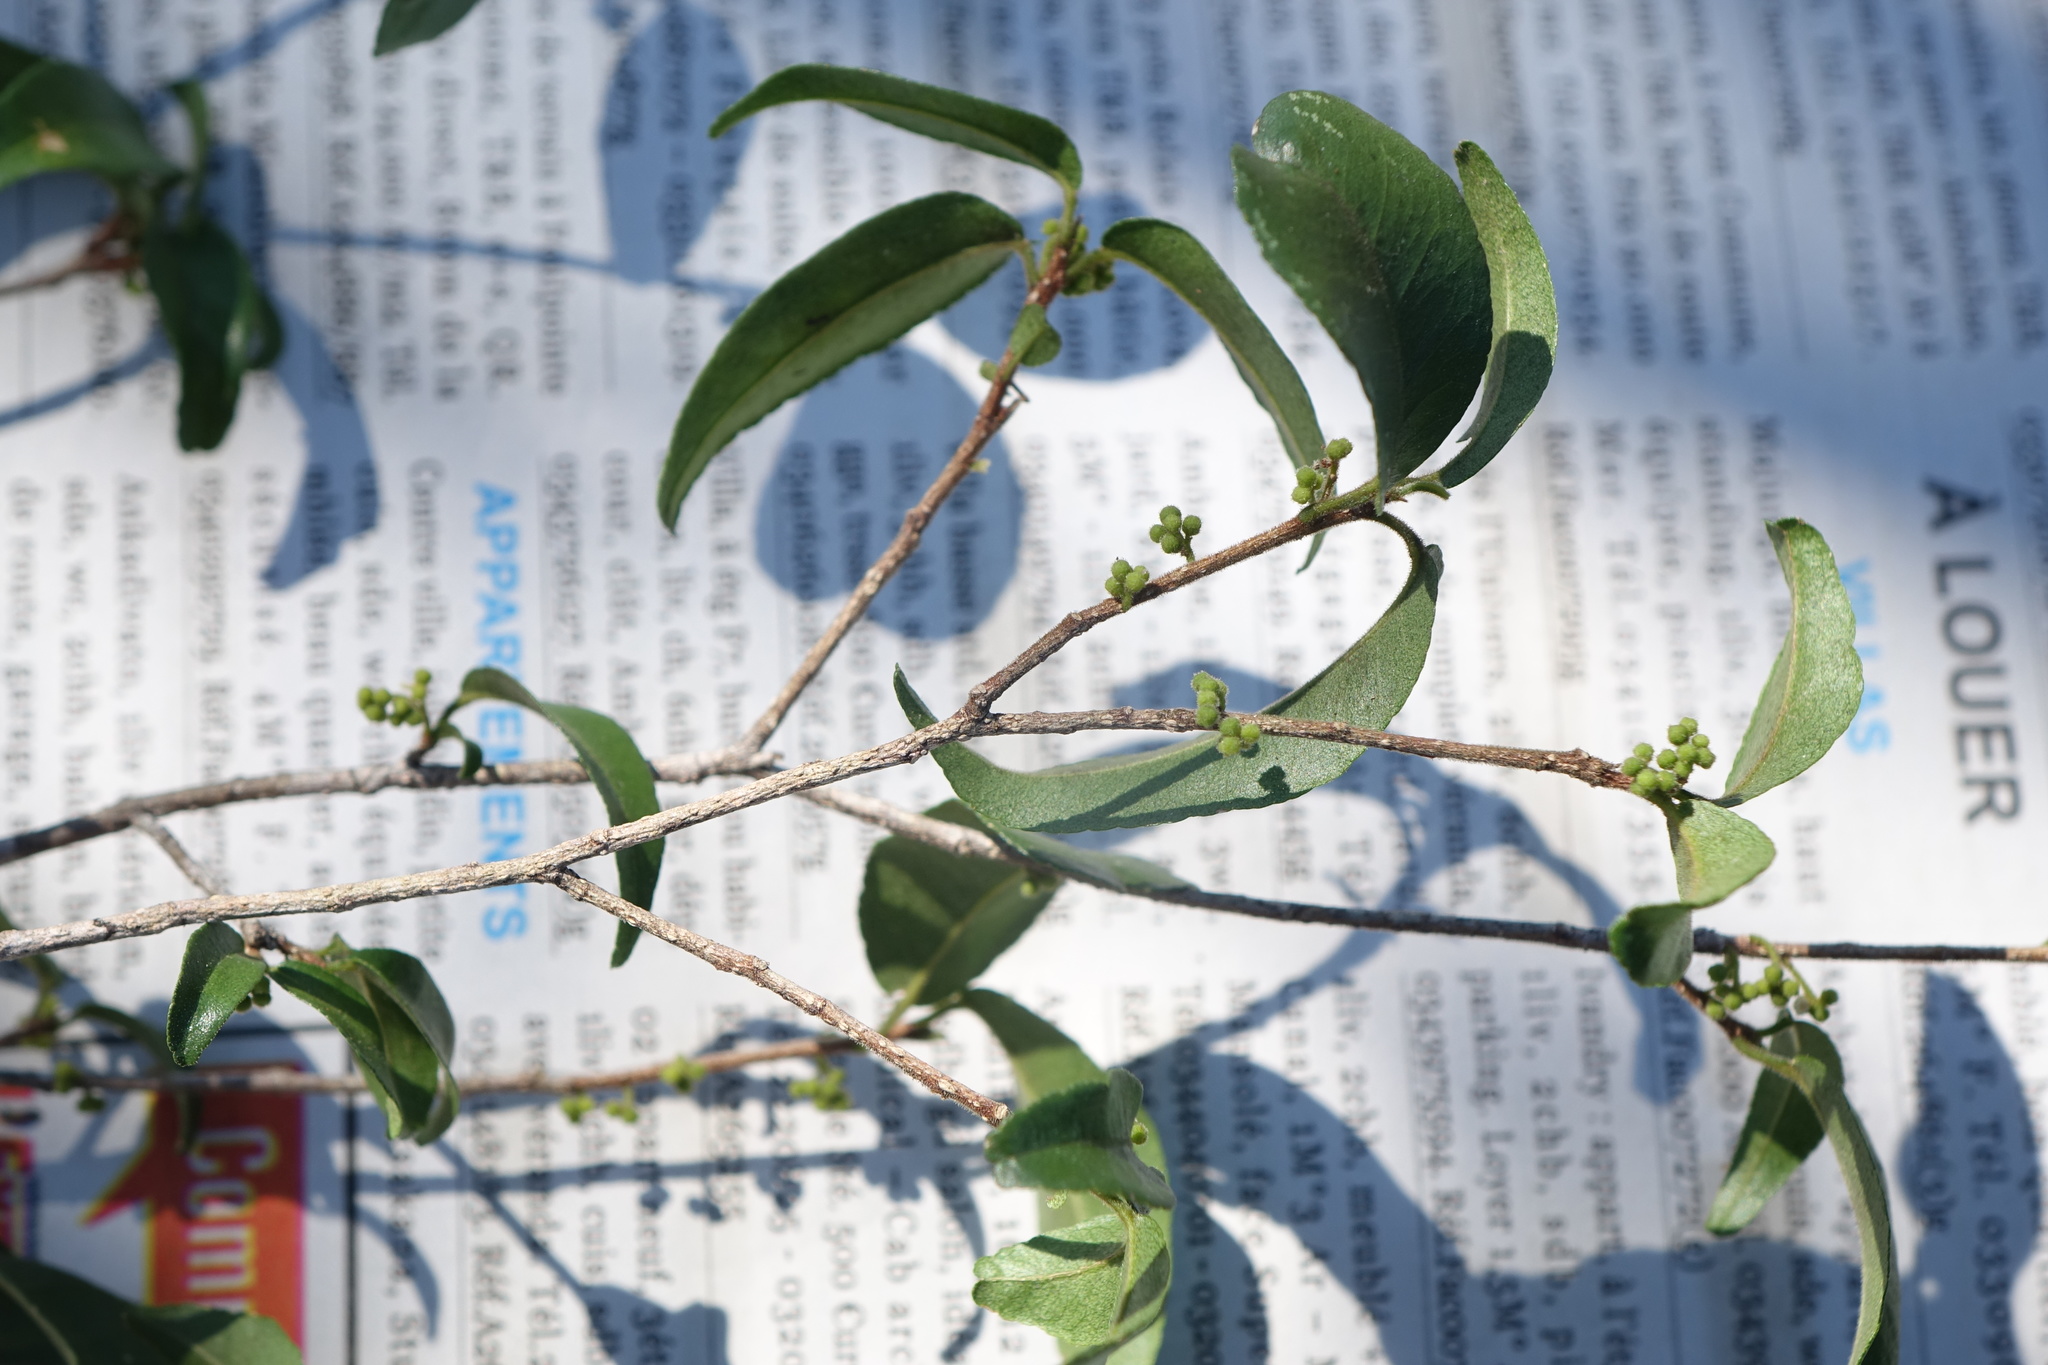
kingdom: Plantae
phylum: Tracheophyta
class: Magnoliopsida
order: Sapindales
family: Rutaceae
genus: Vepris
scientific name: Vepris calcicola
